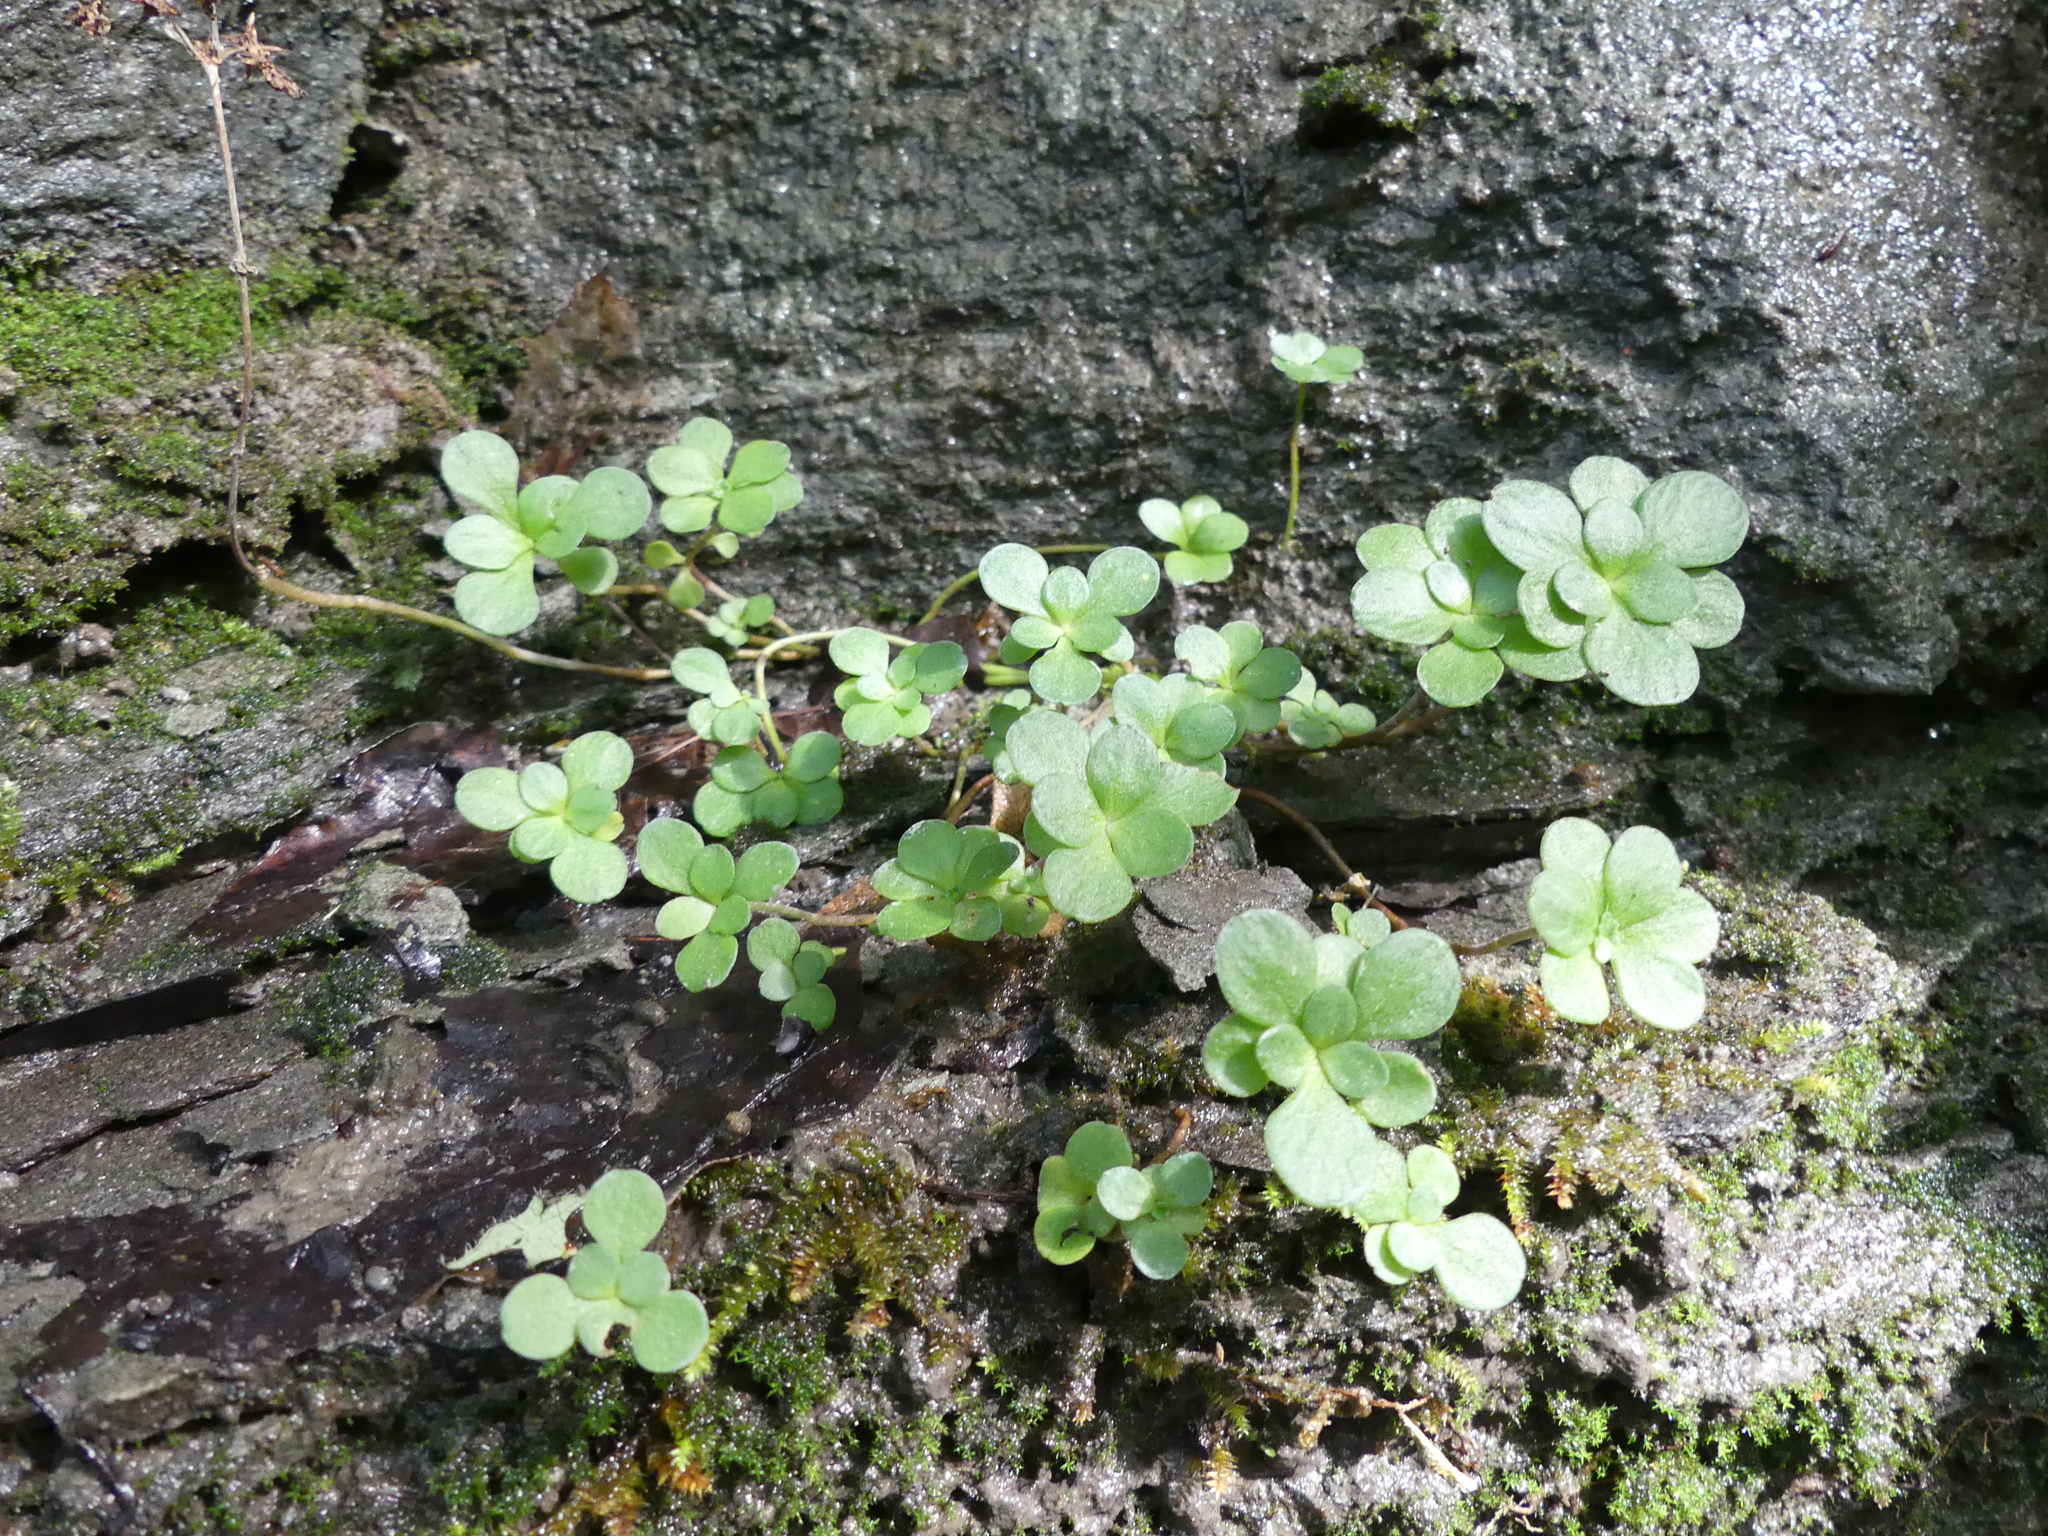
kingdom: Plantae
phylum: Tracheophyta
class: Magnoliopsida
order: Saxifragales
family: Crassulaceae
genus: Sedum
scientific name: Sedum ternatum
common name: Wild stonecrop
